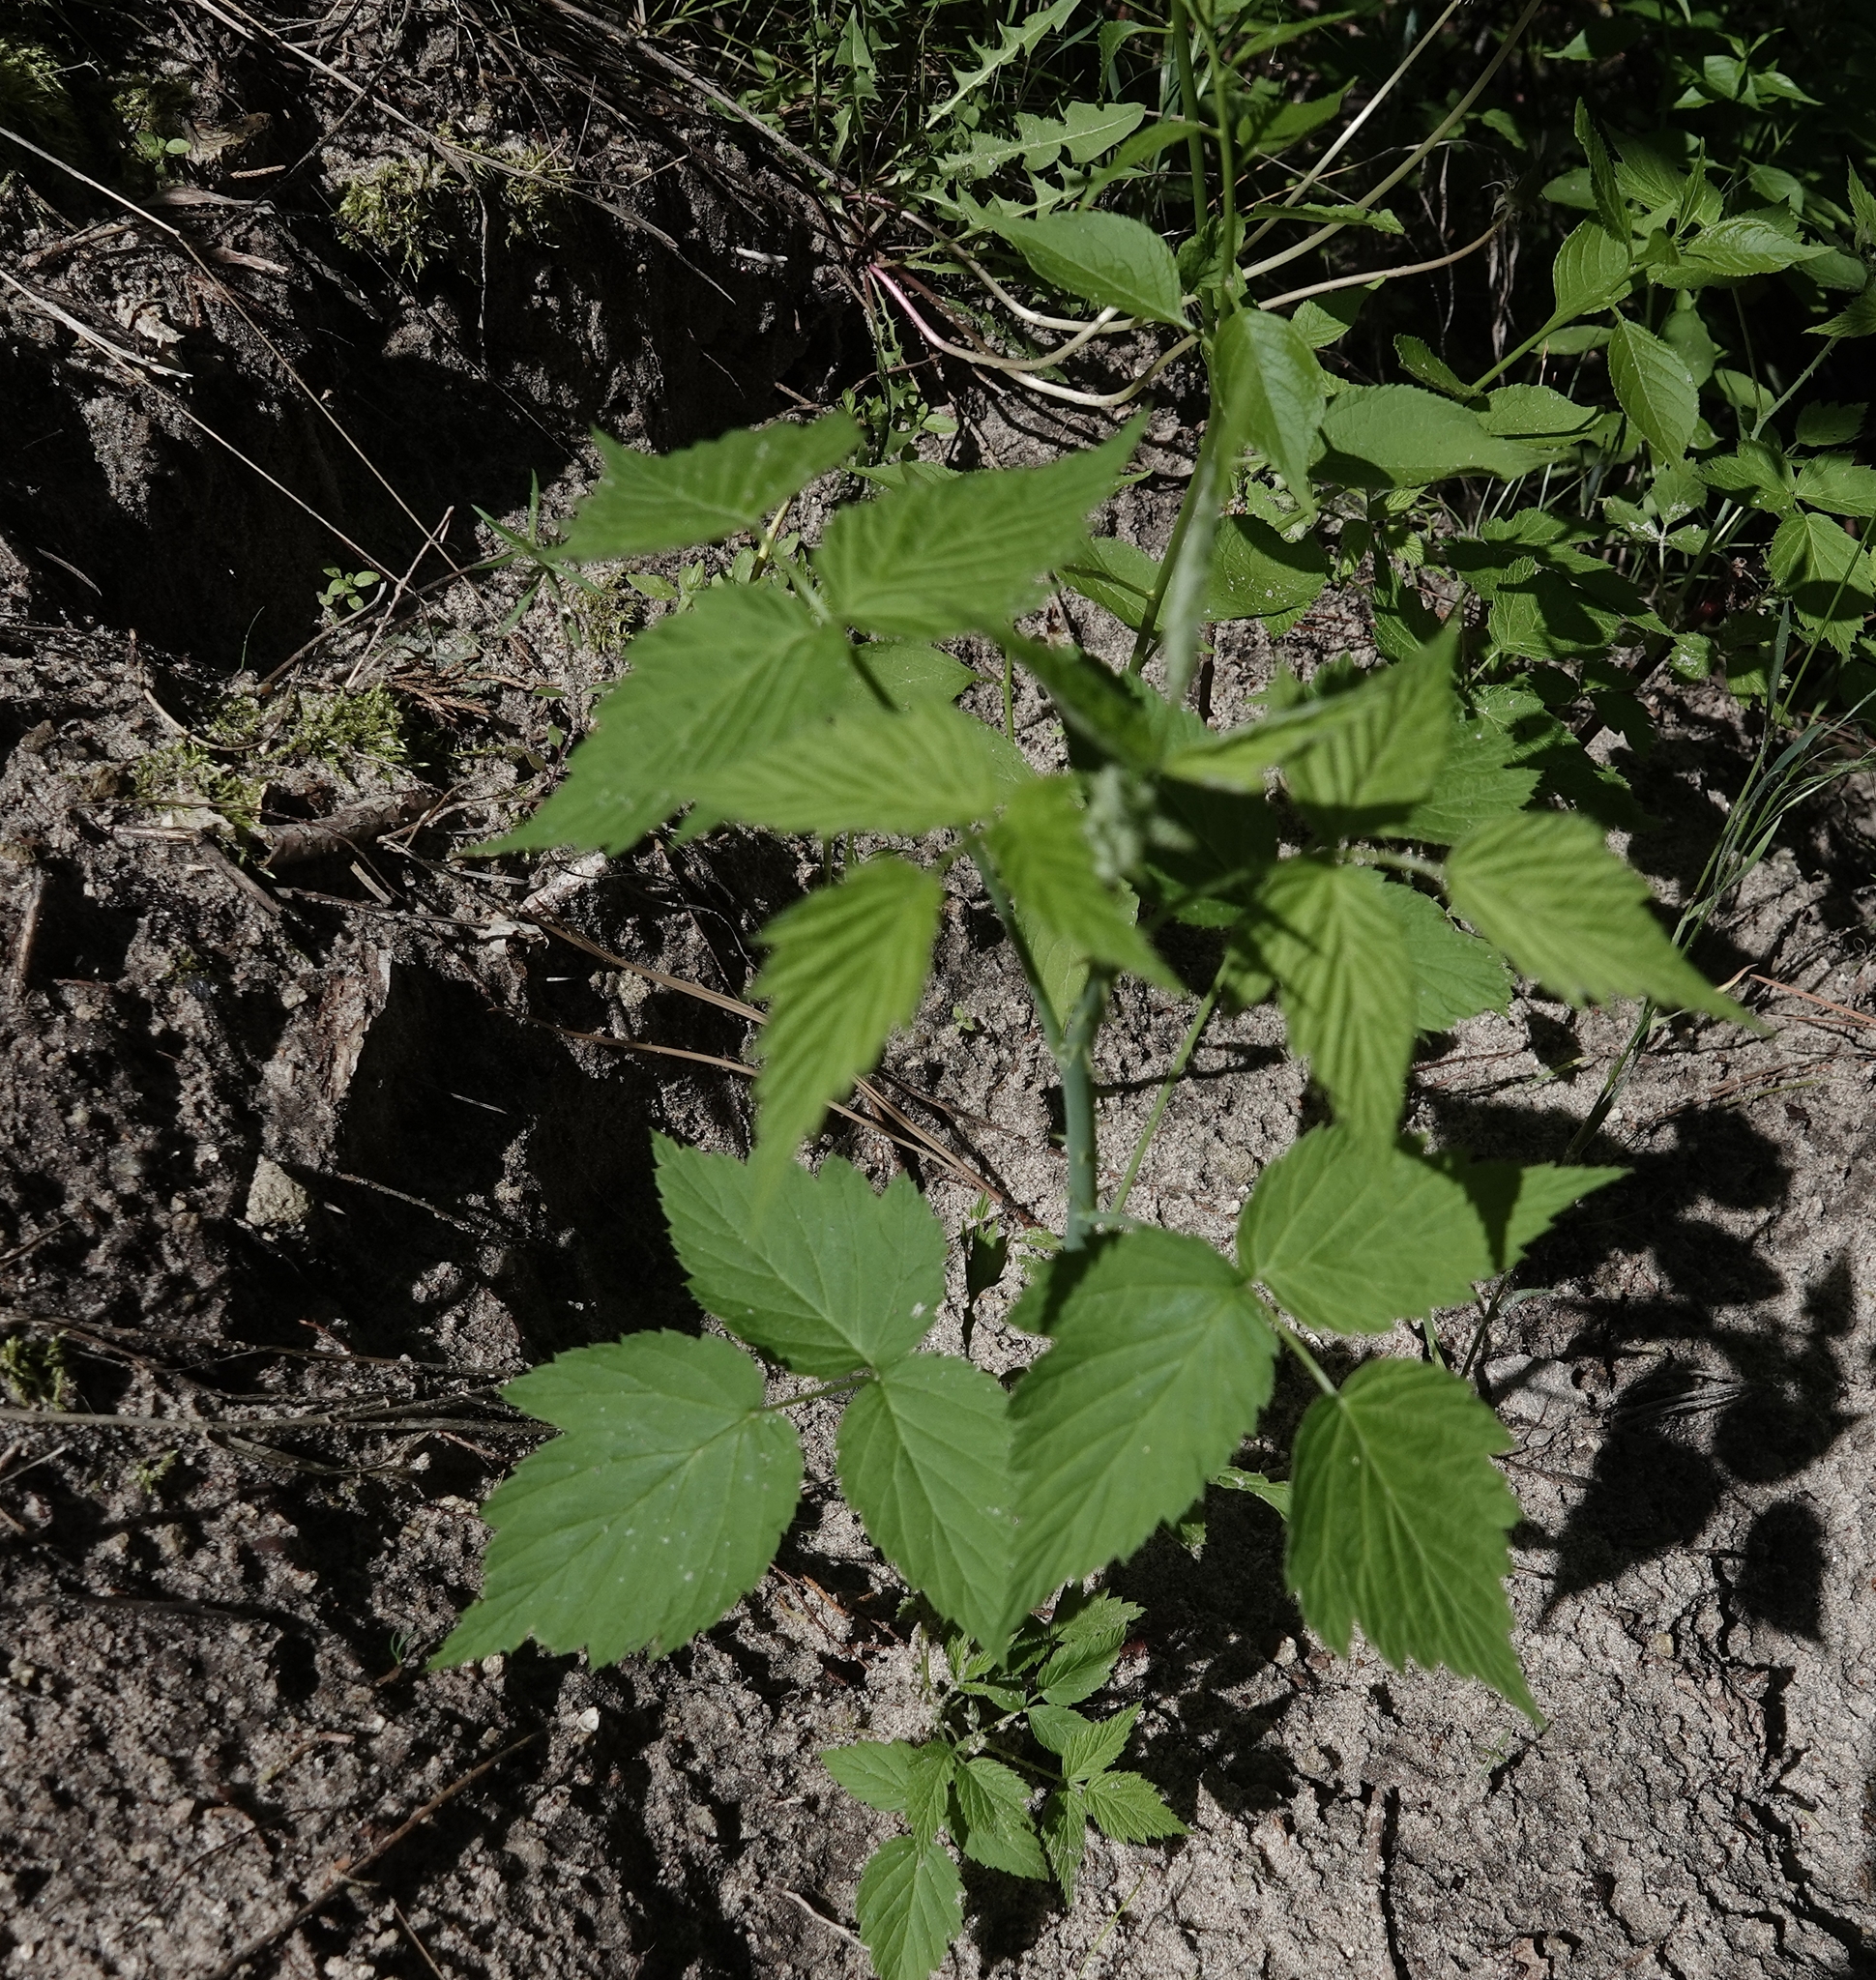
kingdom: Plantae
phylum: Tracheophyta
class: Magnoliopsida
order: Rosales
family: Rosaceae
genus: Rubus
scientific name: Rubus occidentalis
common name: Black raspberry
